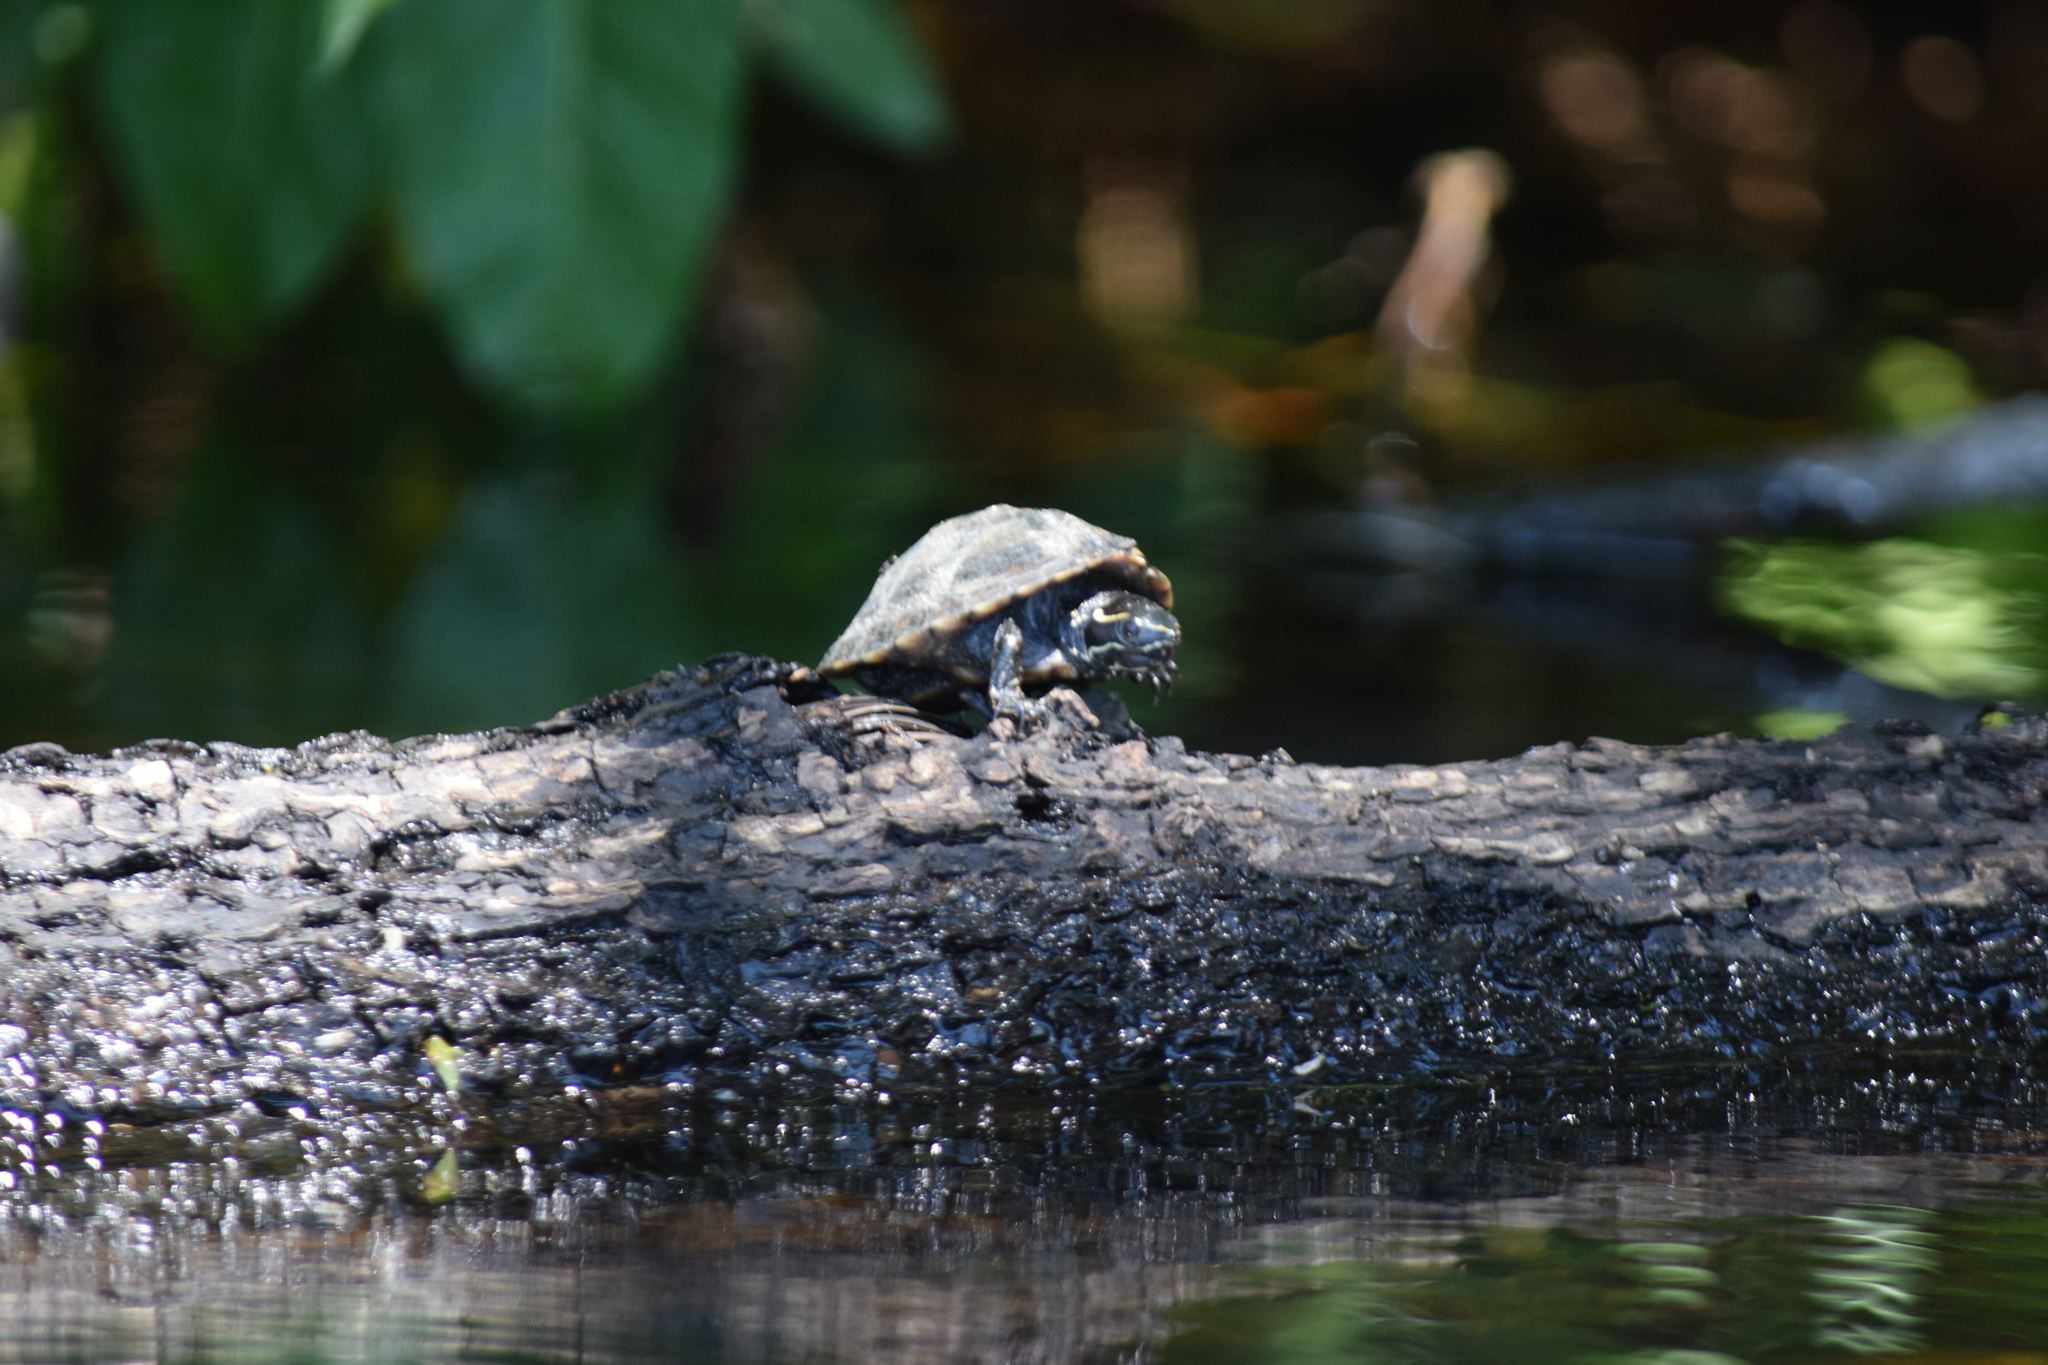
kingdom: Animalia
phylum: Chordata
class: Testudines
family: Kinosternidae
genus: Sternotherus
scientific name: Sternotherus odoratus
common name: Common musk turtle
